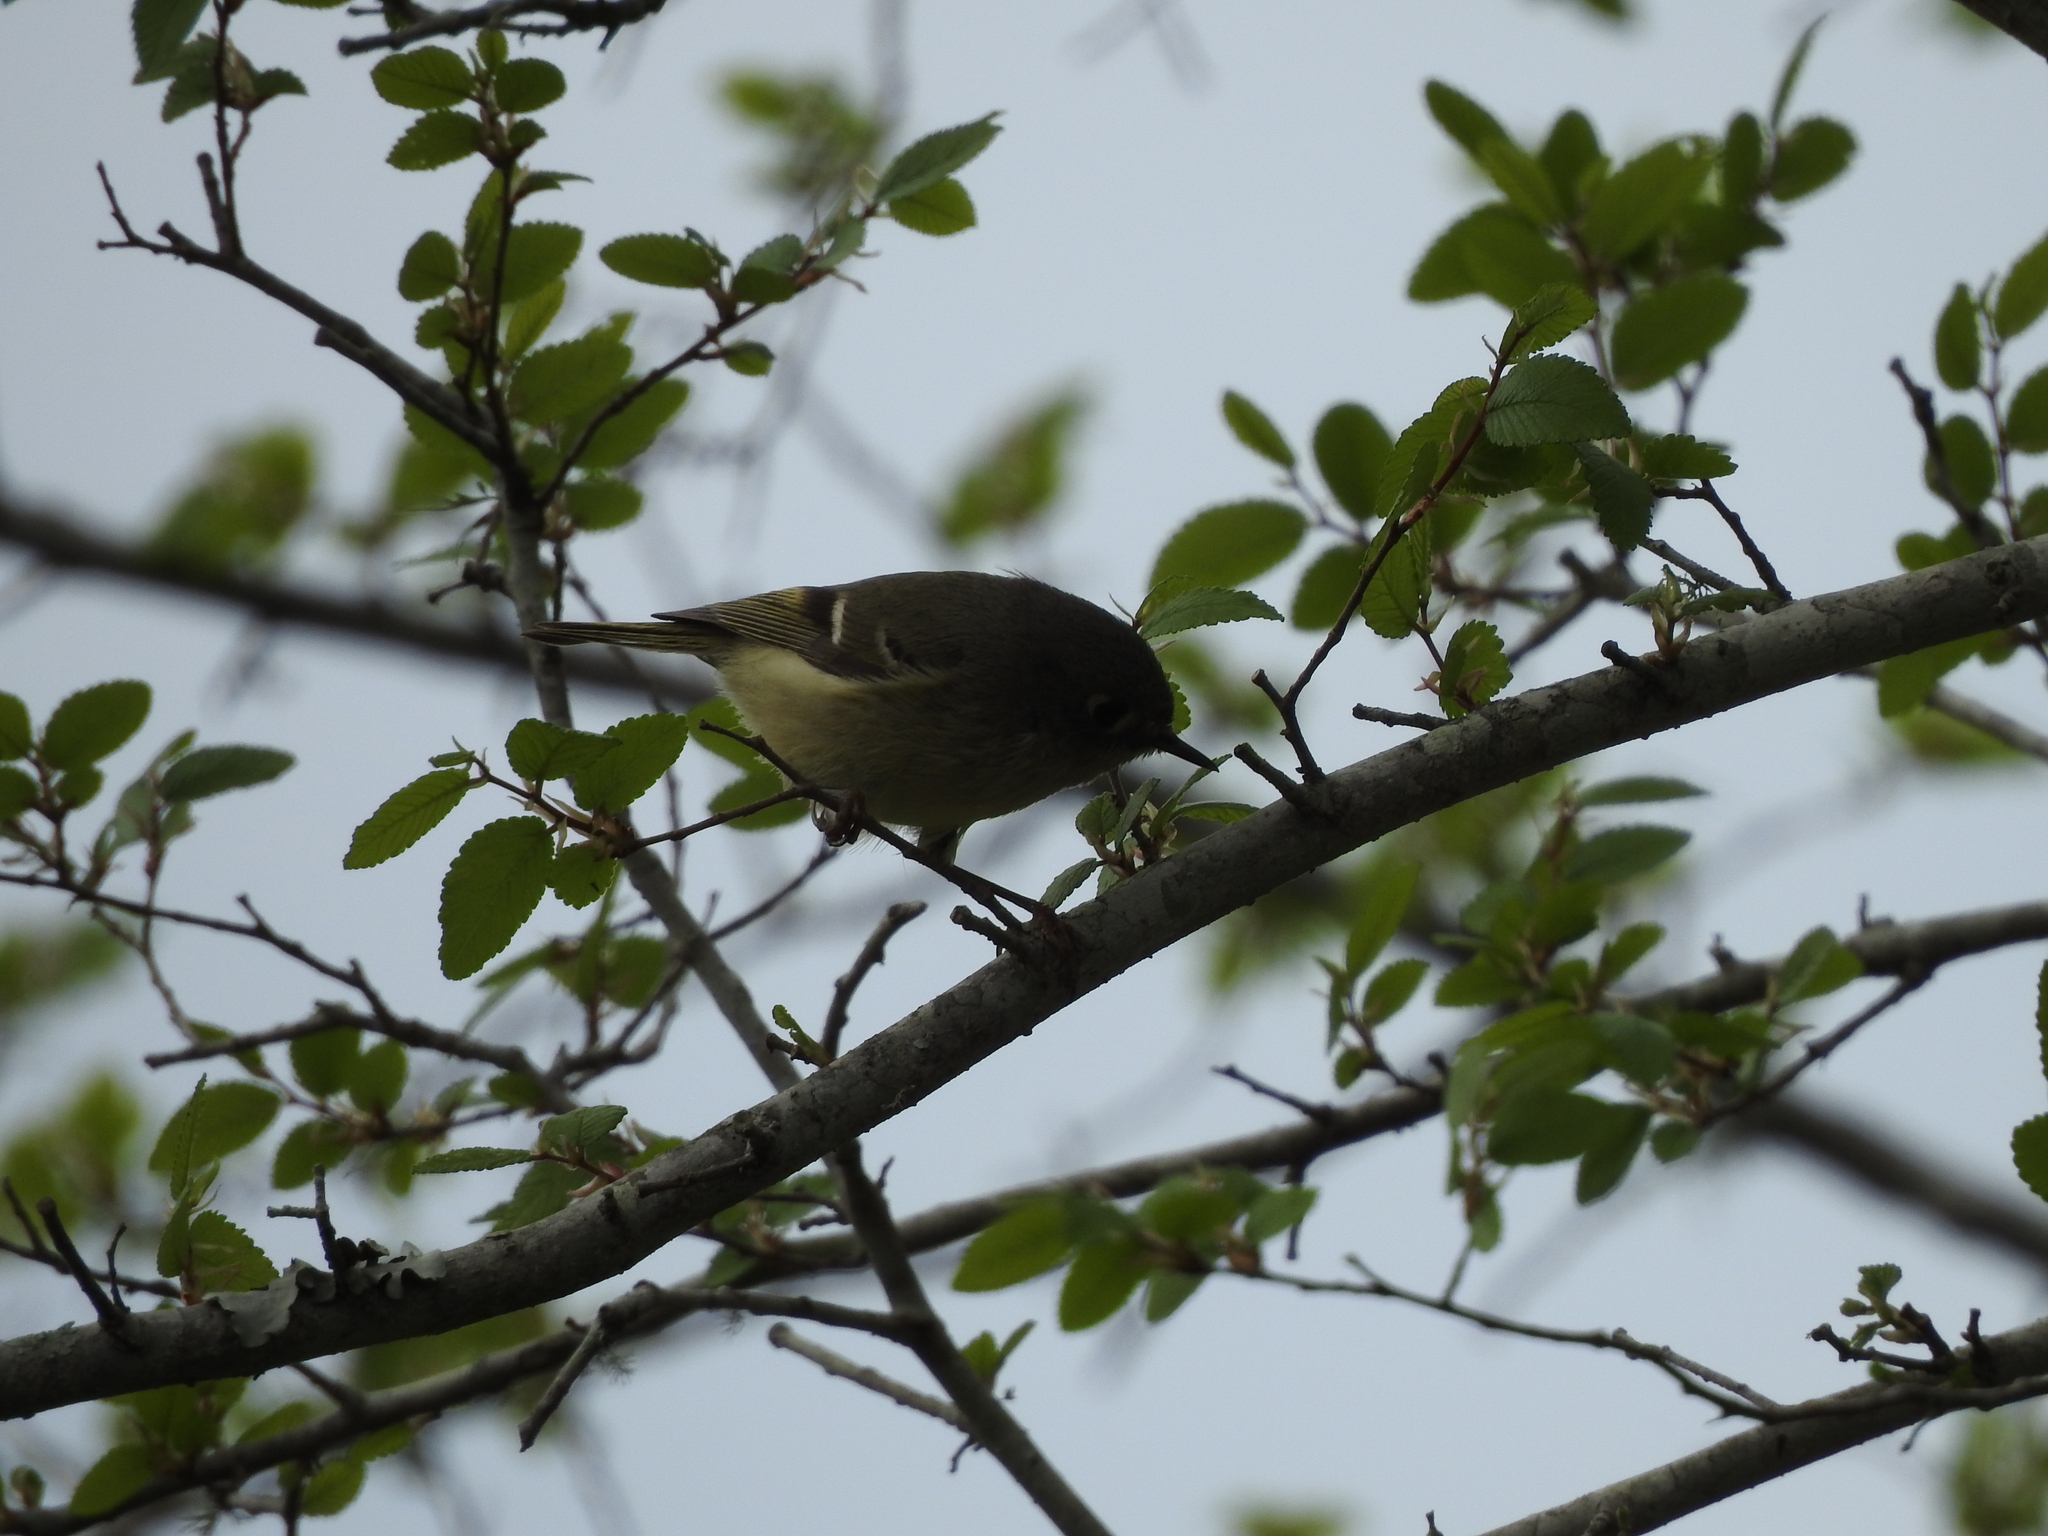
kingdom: Animalia
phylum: Chordata
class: Aves
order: Passeriformes
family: Regulidae
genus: Regulus
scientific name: Regulus calendula
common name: Ruby-crowned kinglet
